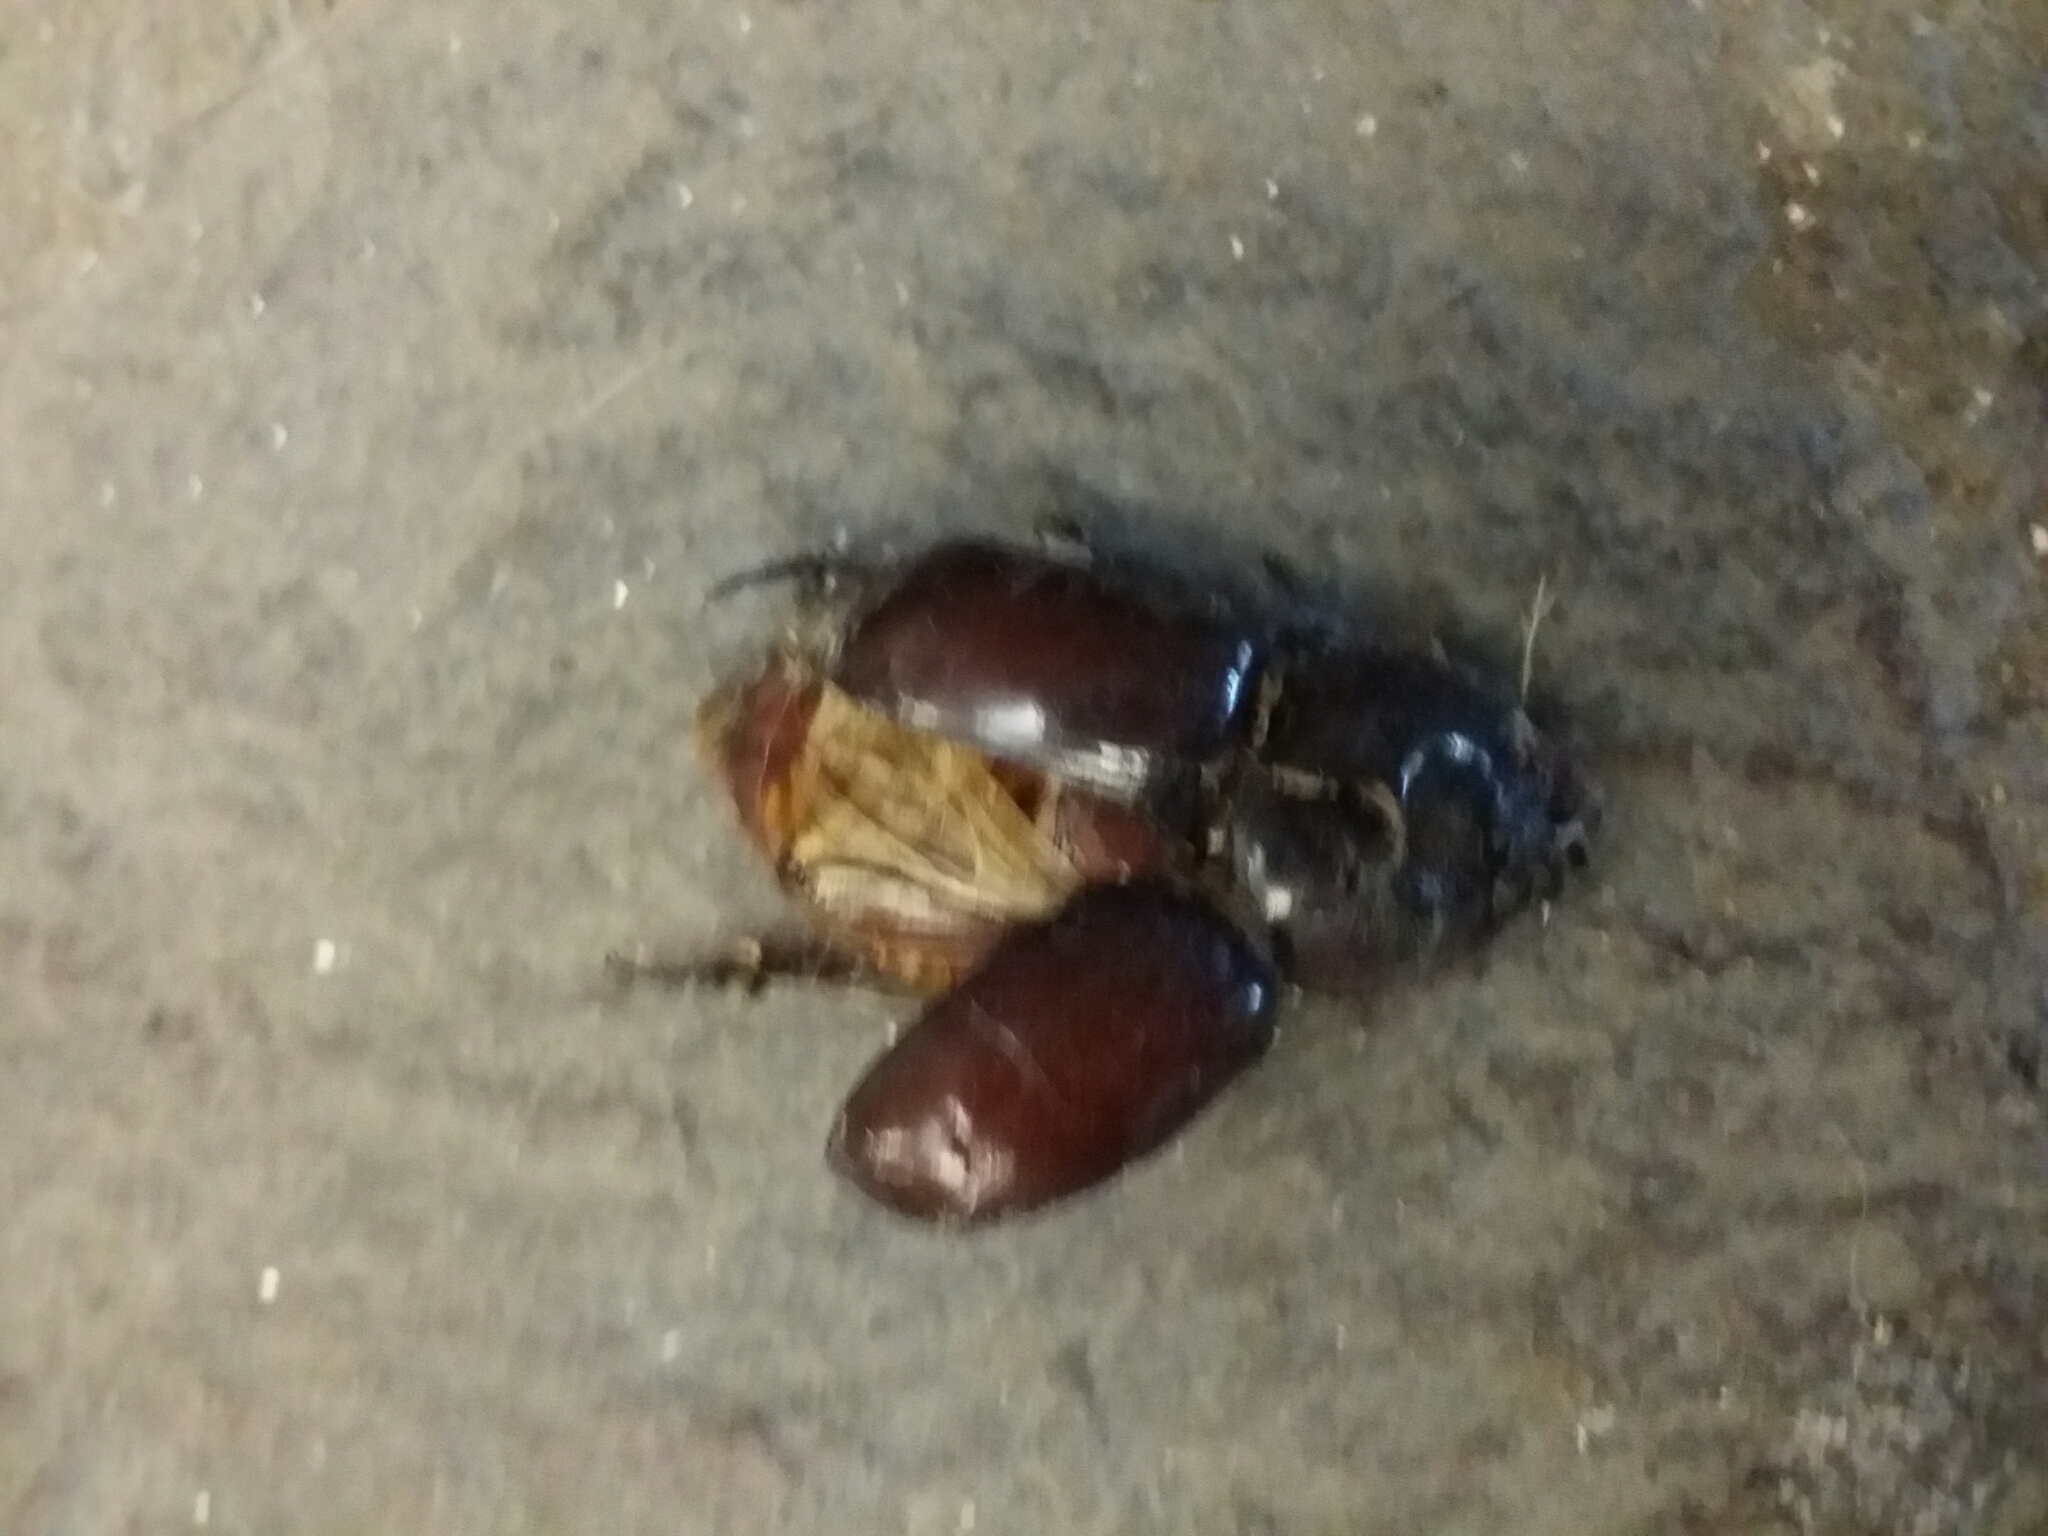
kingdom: Animalia
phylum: Arthropoda
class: Insecta
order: Coleoptera
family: Scarabaeidae
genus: Oryctes
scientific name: Oryctes nasicornis
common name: European rhinoceros beetle
